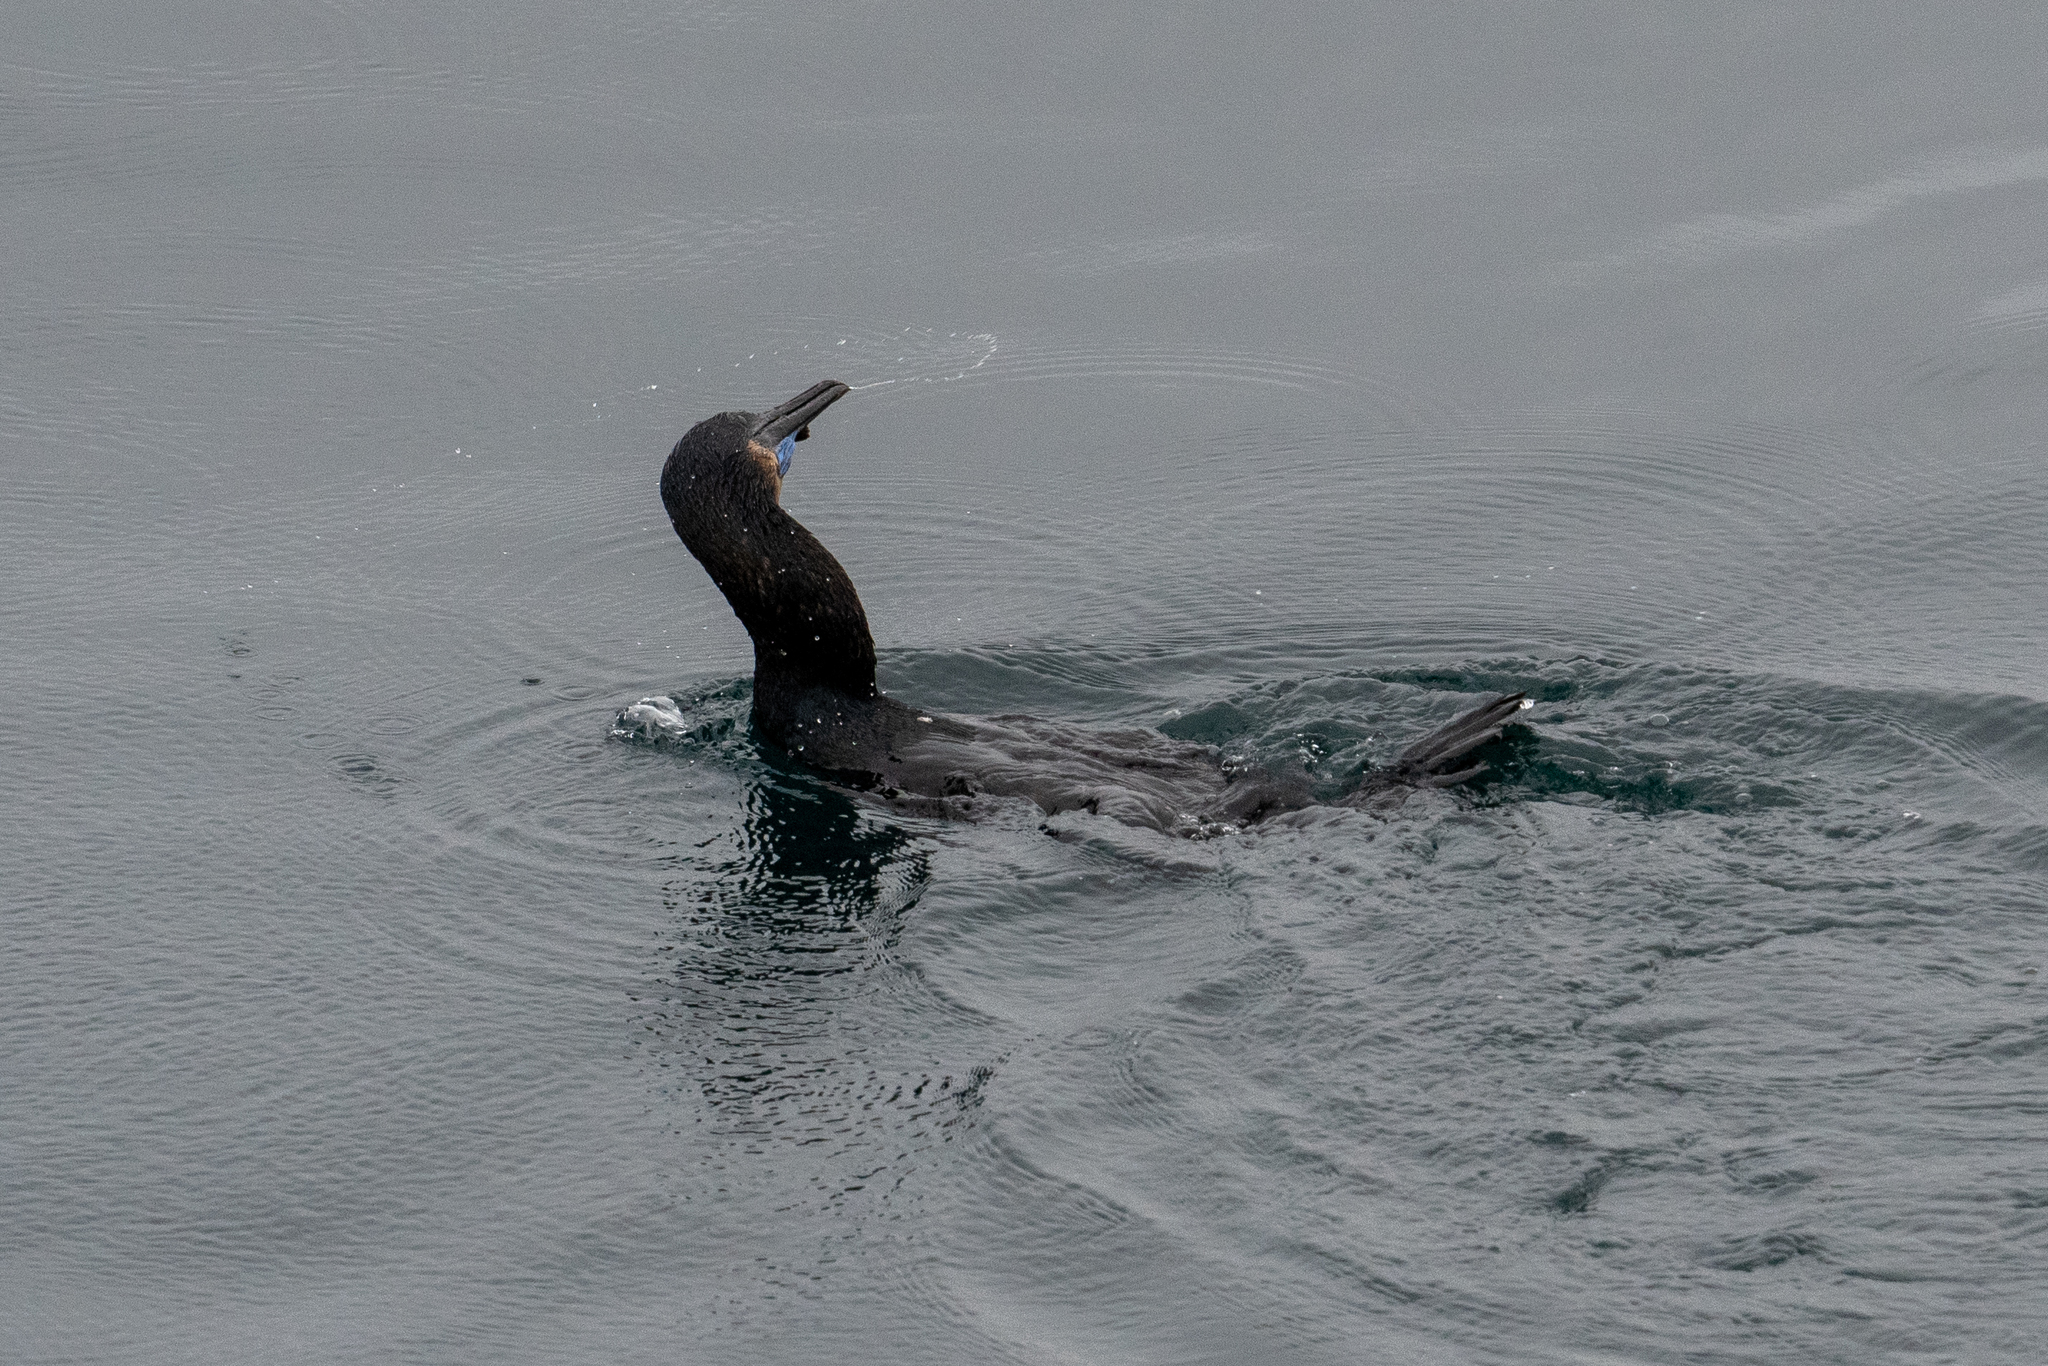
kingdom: Animalia
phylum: Chordata
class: Aves
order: Suliformes
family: Phalacrocoracidae
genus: Urile
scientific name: Urile penicillatus
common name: Brandt's cormorant
